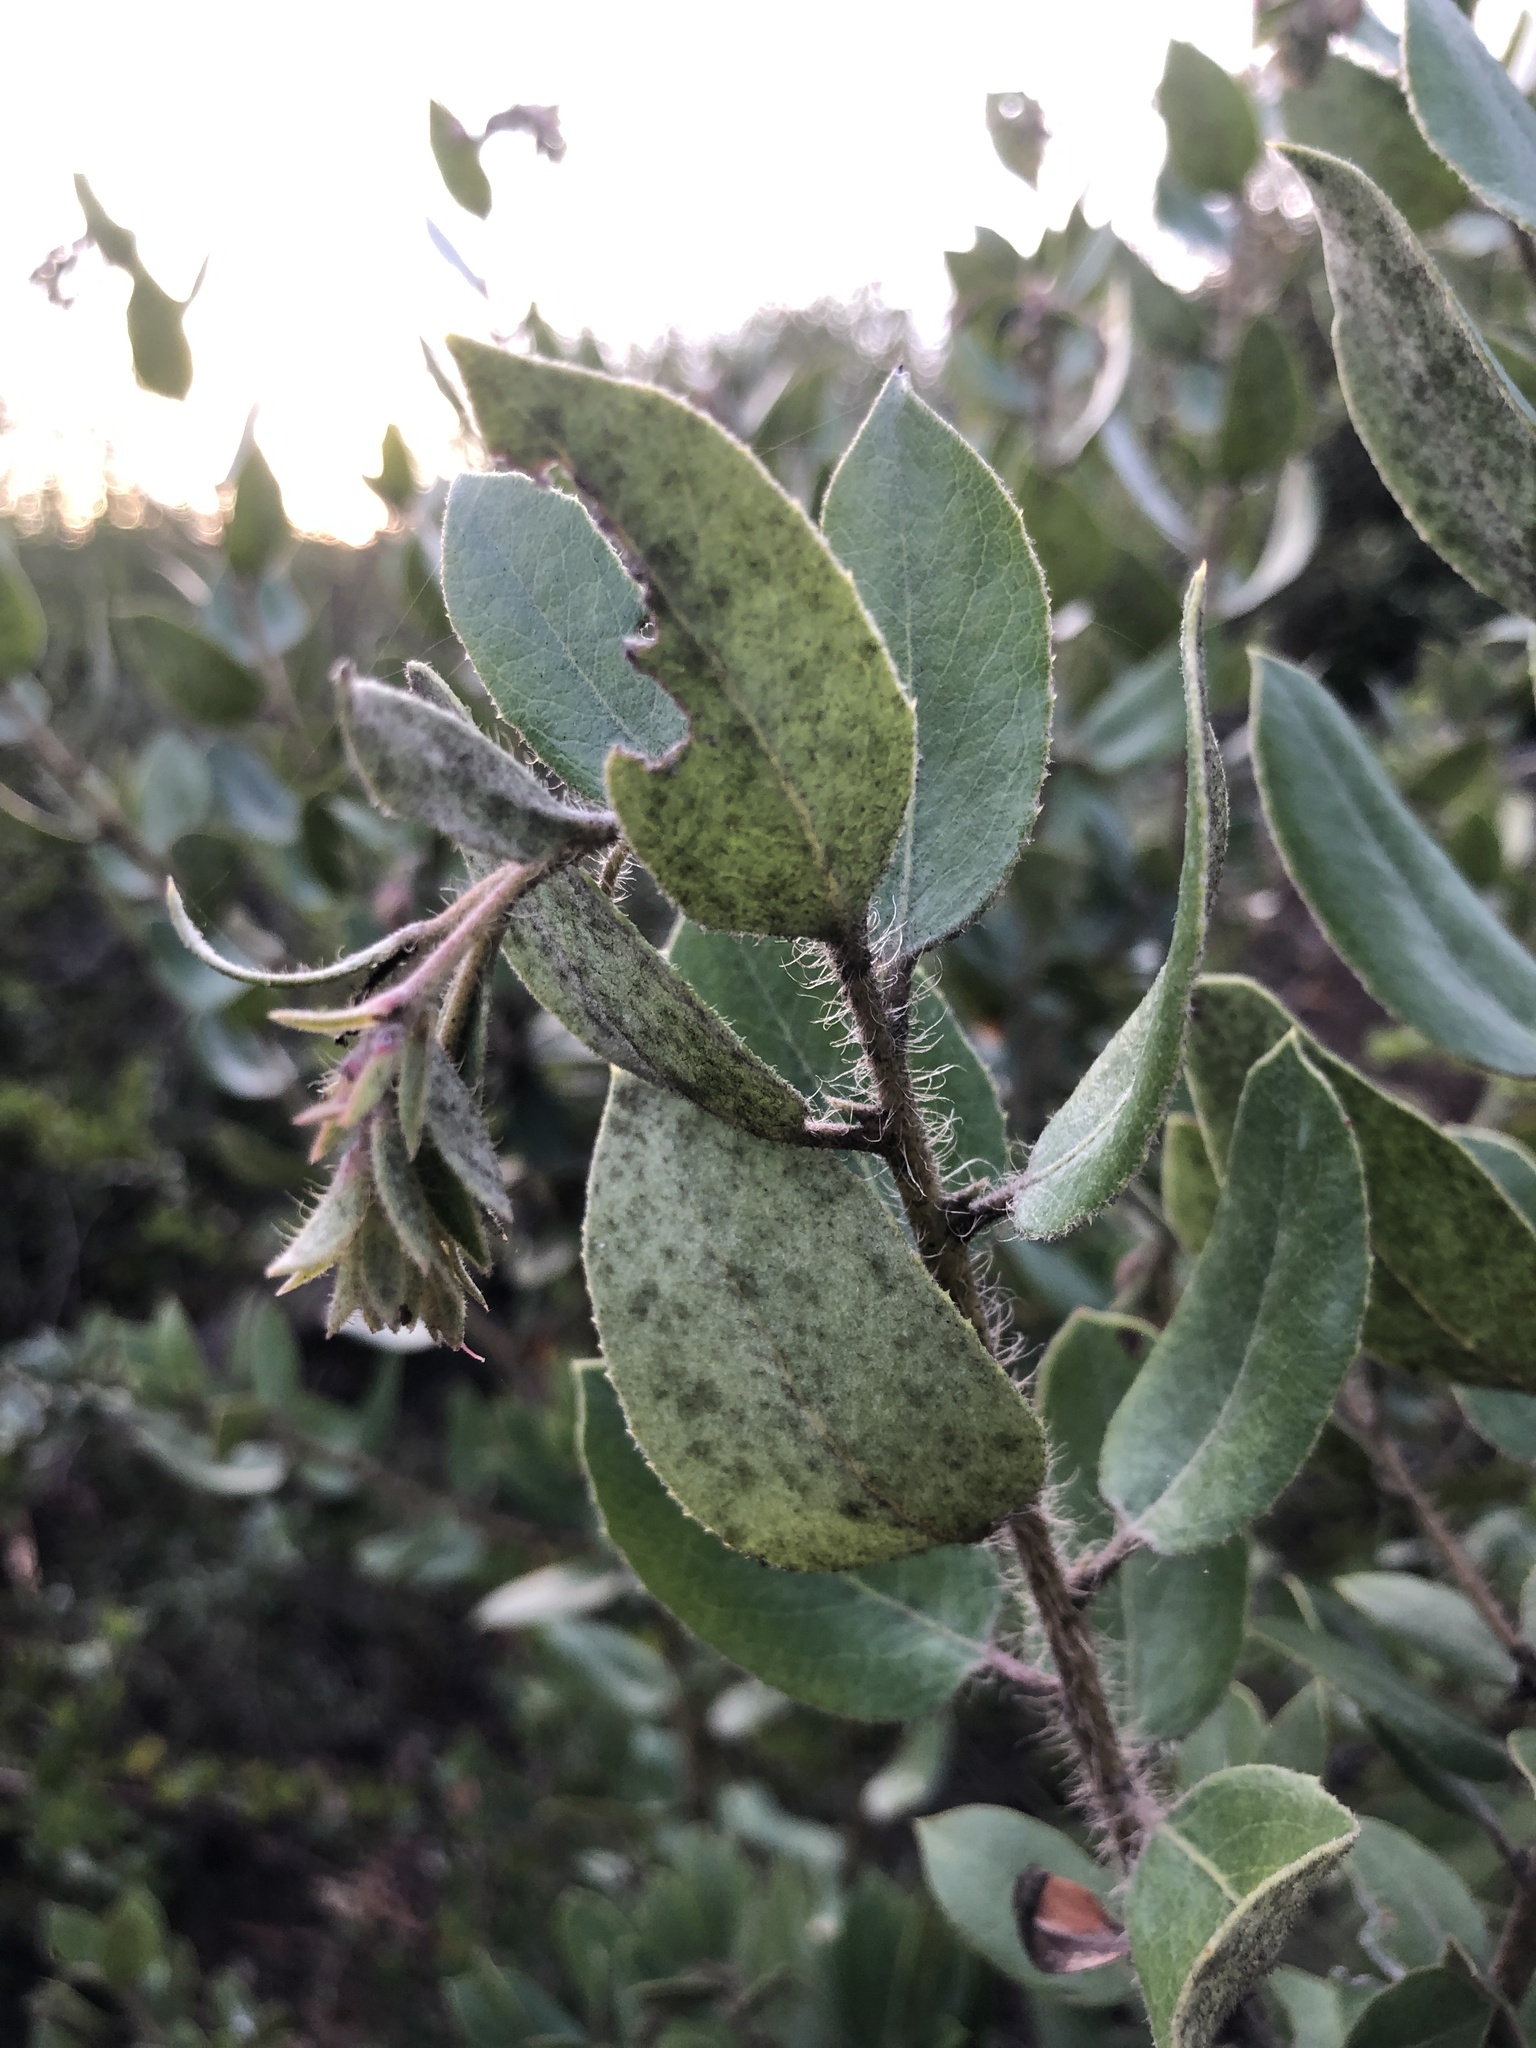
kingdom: Plantae
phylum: Tracheophyta
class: Magnoliopsida
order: Ericales
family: Ericaceae
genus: Arctostaphylos
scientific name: Arctostaphylos crustacea
